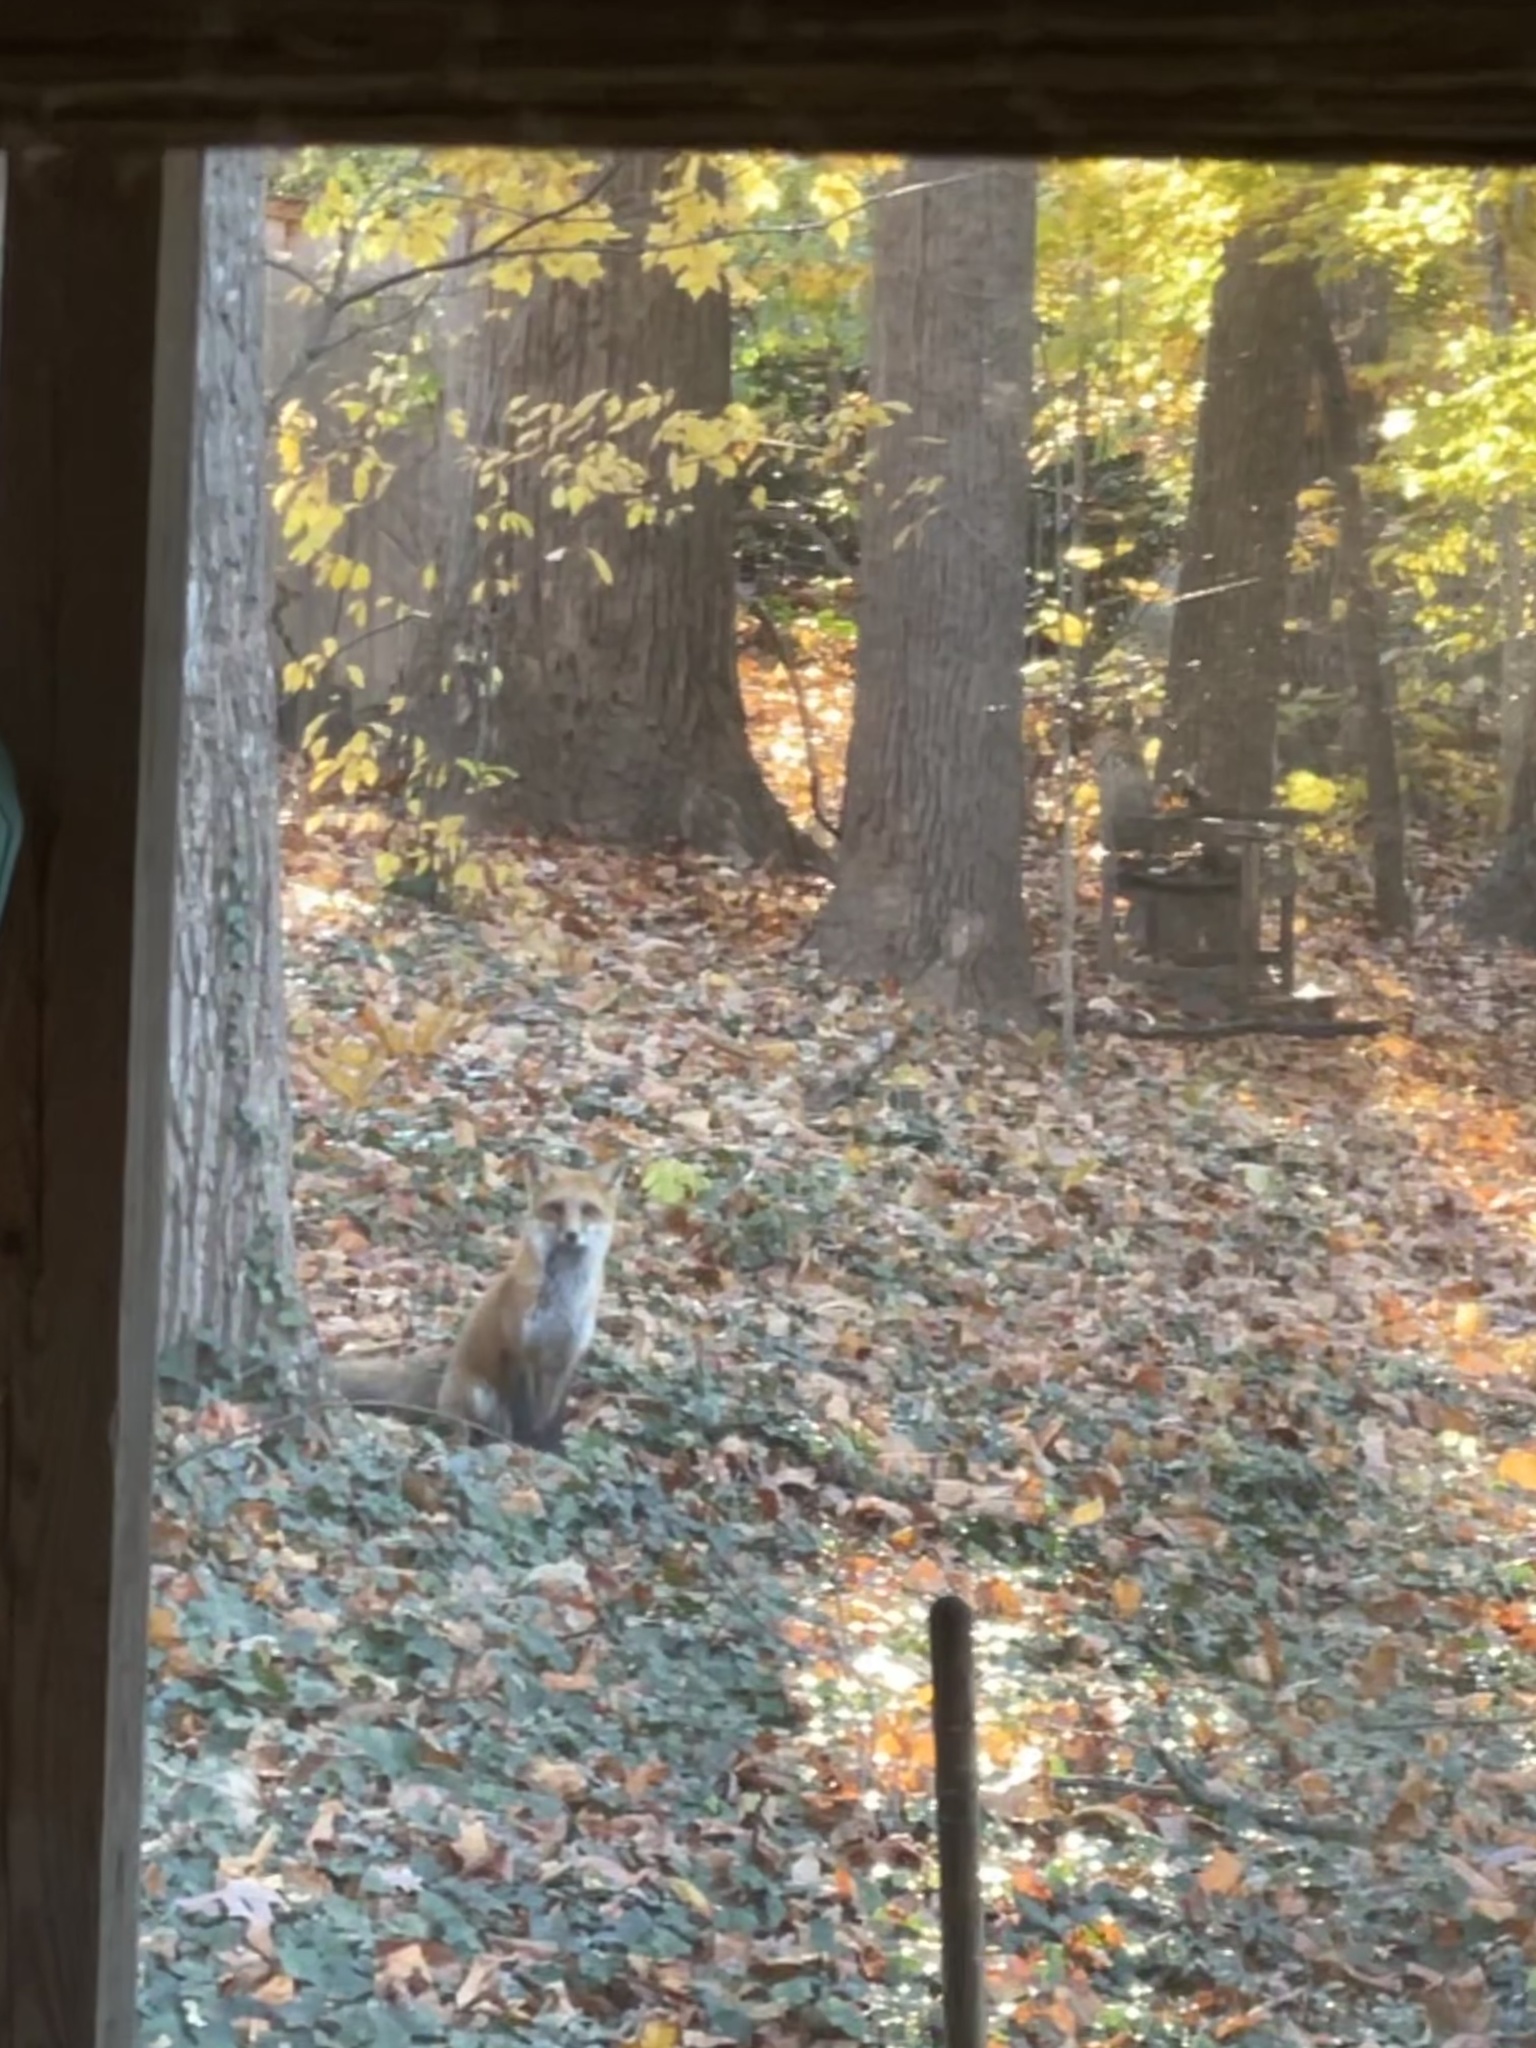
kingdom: Animalia
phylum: Chordata
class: Mammalia
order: Carnivora
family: Canidae
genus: Vulpes
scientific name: Vulpes vulpes
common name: Red fox
